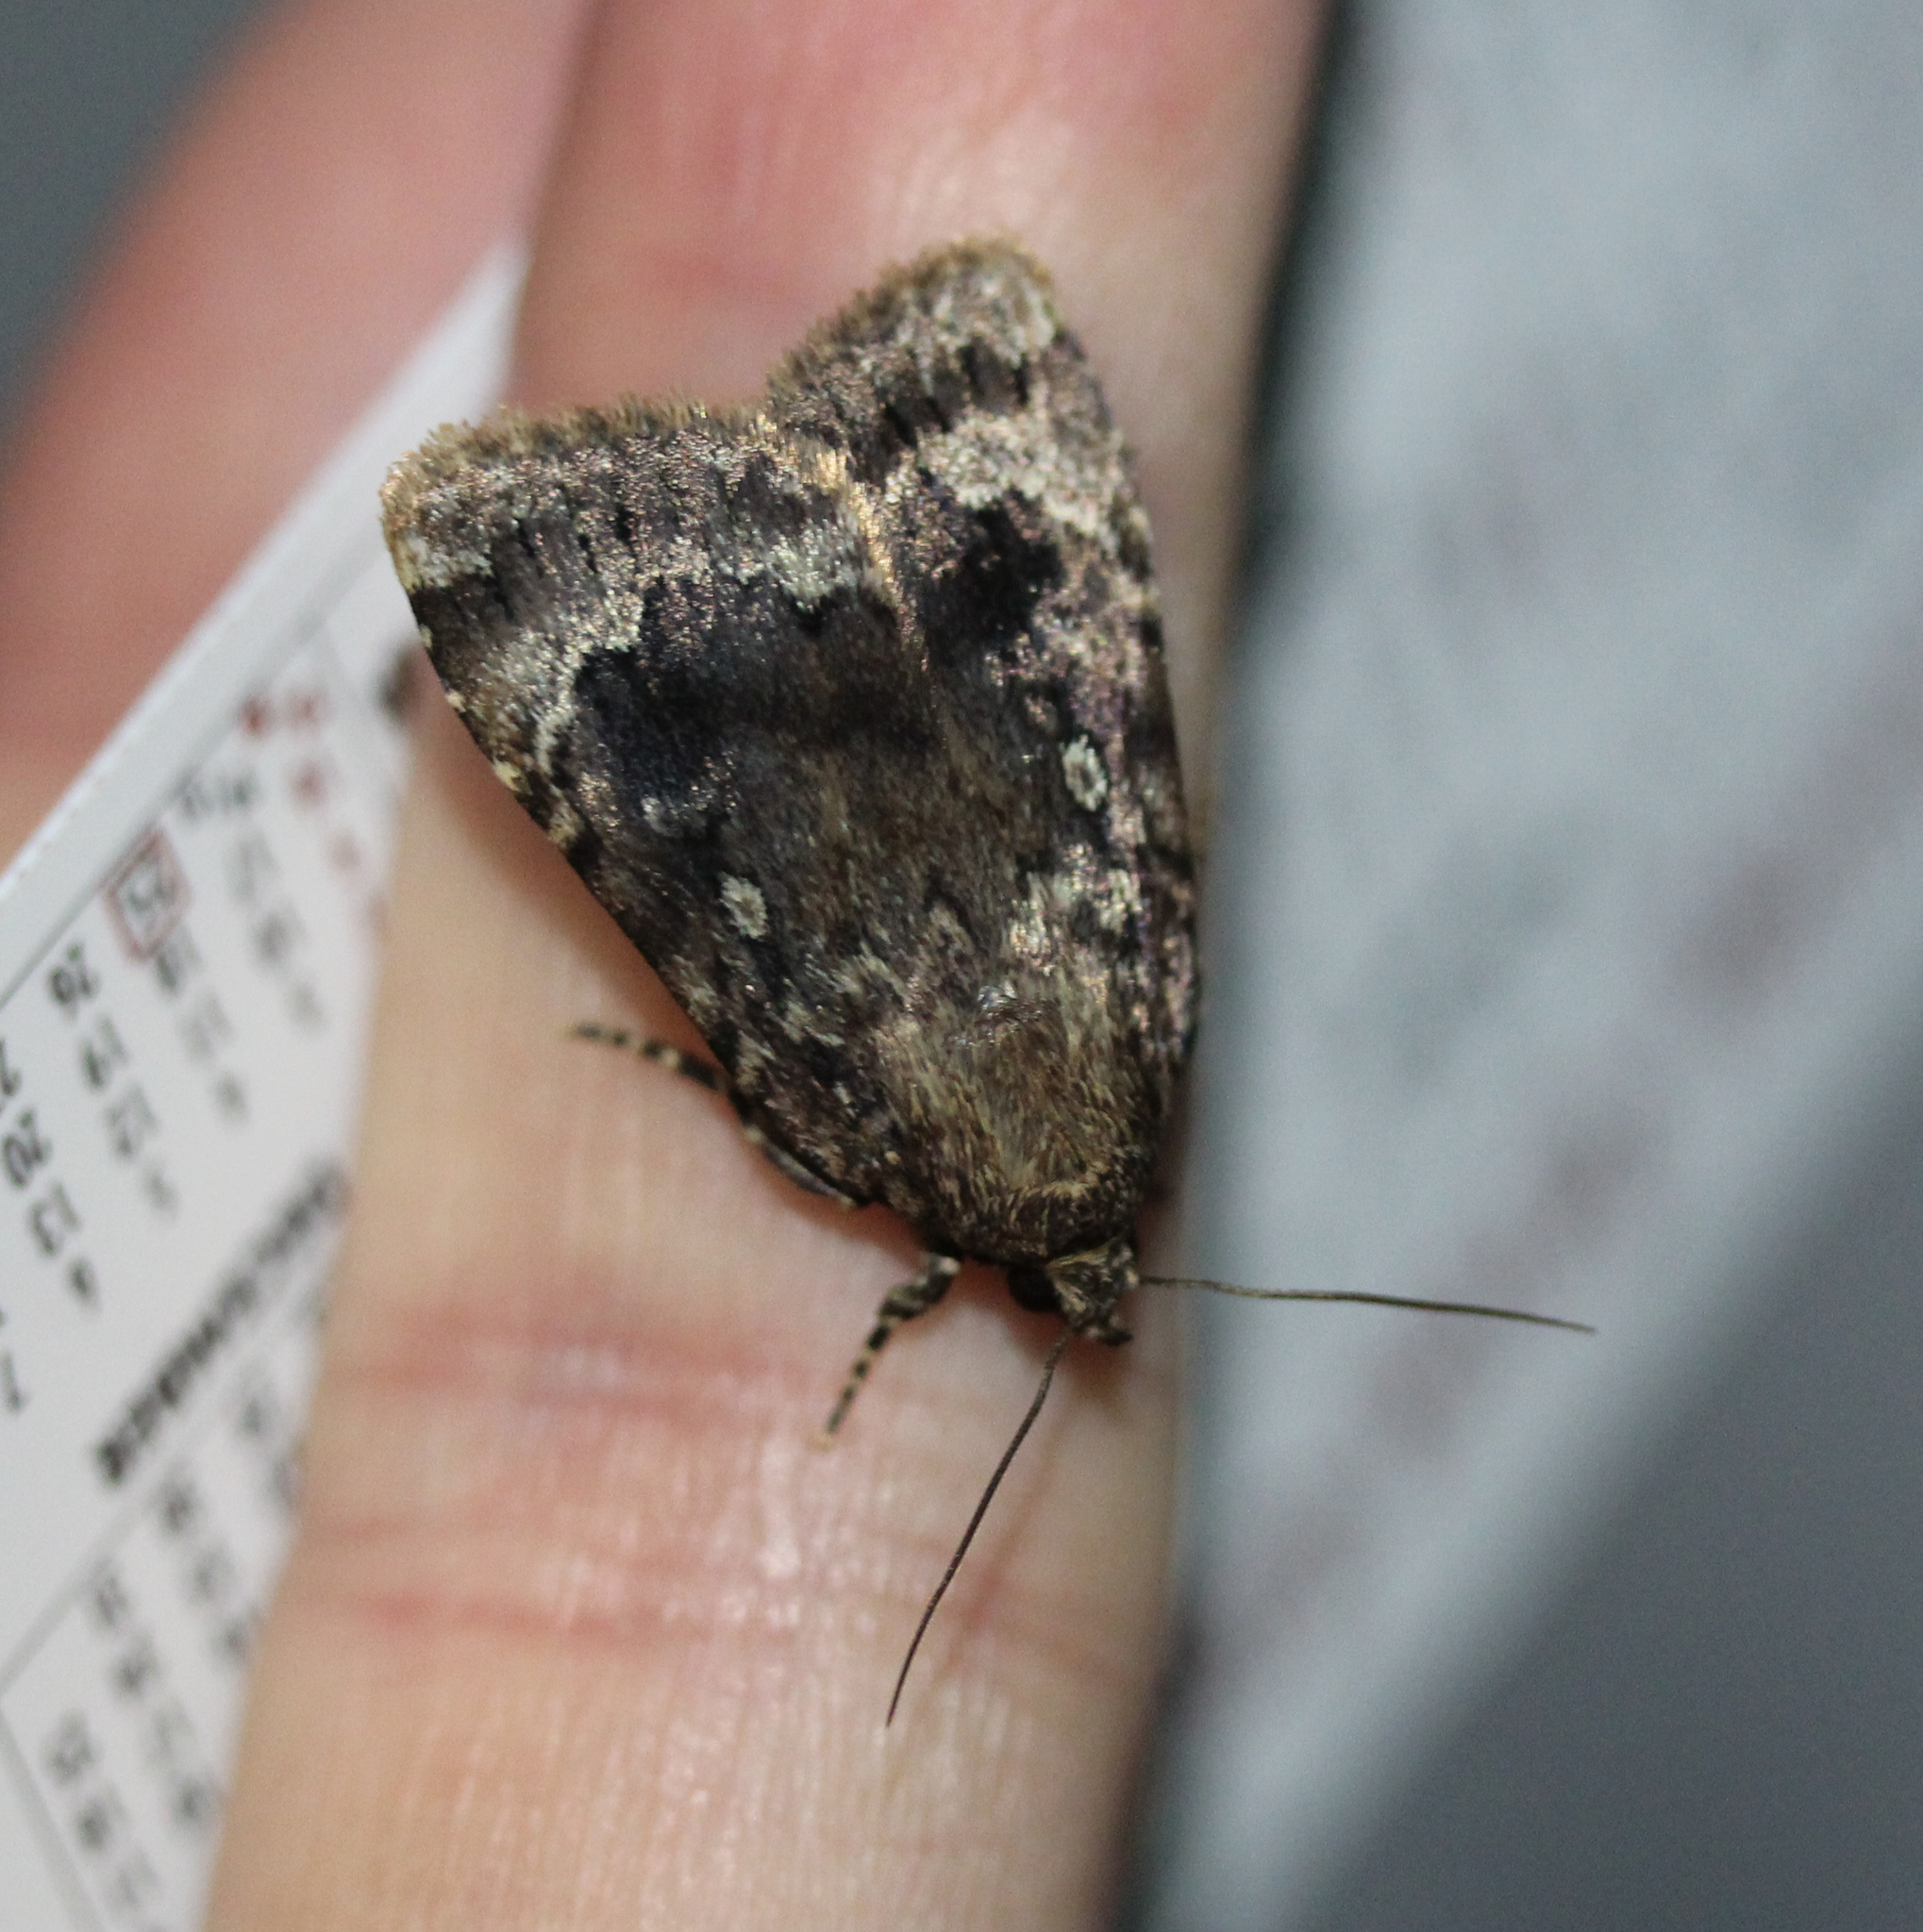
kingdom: Animalia
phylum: Arthropoda
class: Insecta
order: Lepidoptera
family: Noctuidae
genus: Amphipyra
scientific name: Amphipyra pyramidoides
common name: American copper underwing
